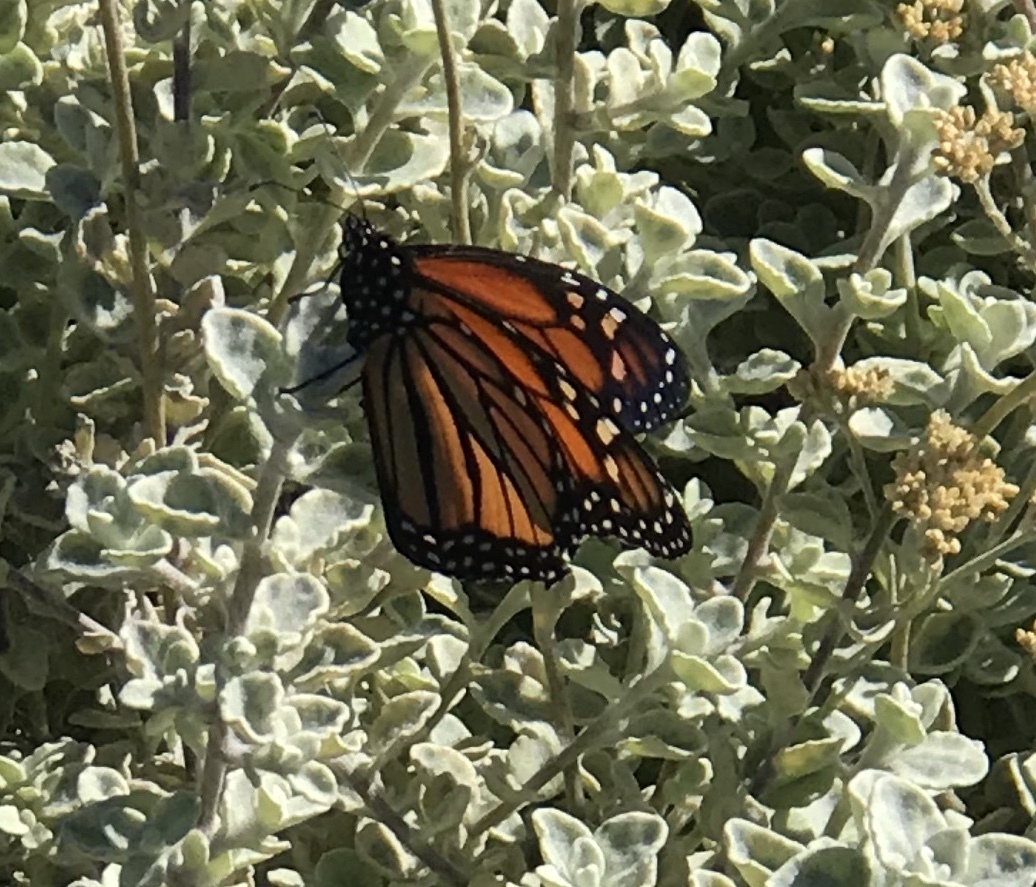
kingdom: Animalia
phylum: Arthropoda
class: Insecta
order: Lepidoptera
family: Nymphalidae
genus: Danaus
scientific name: Danaus plexippus
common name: Monarch
